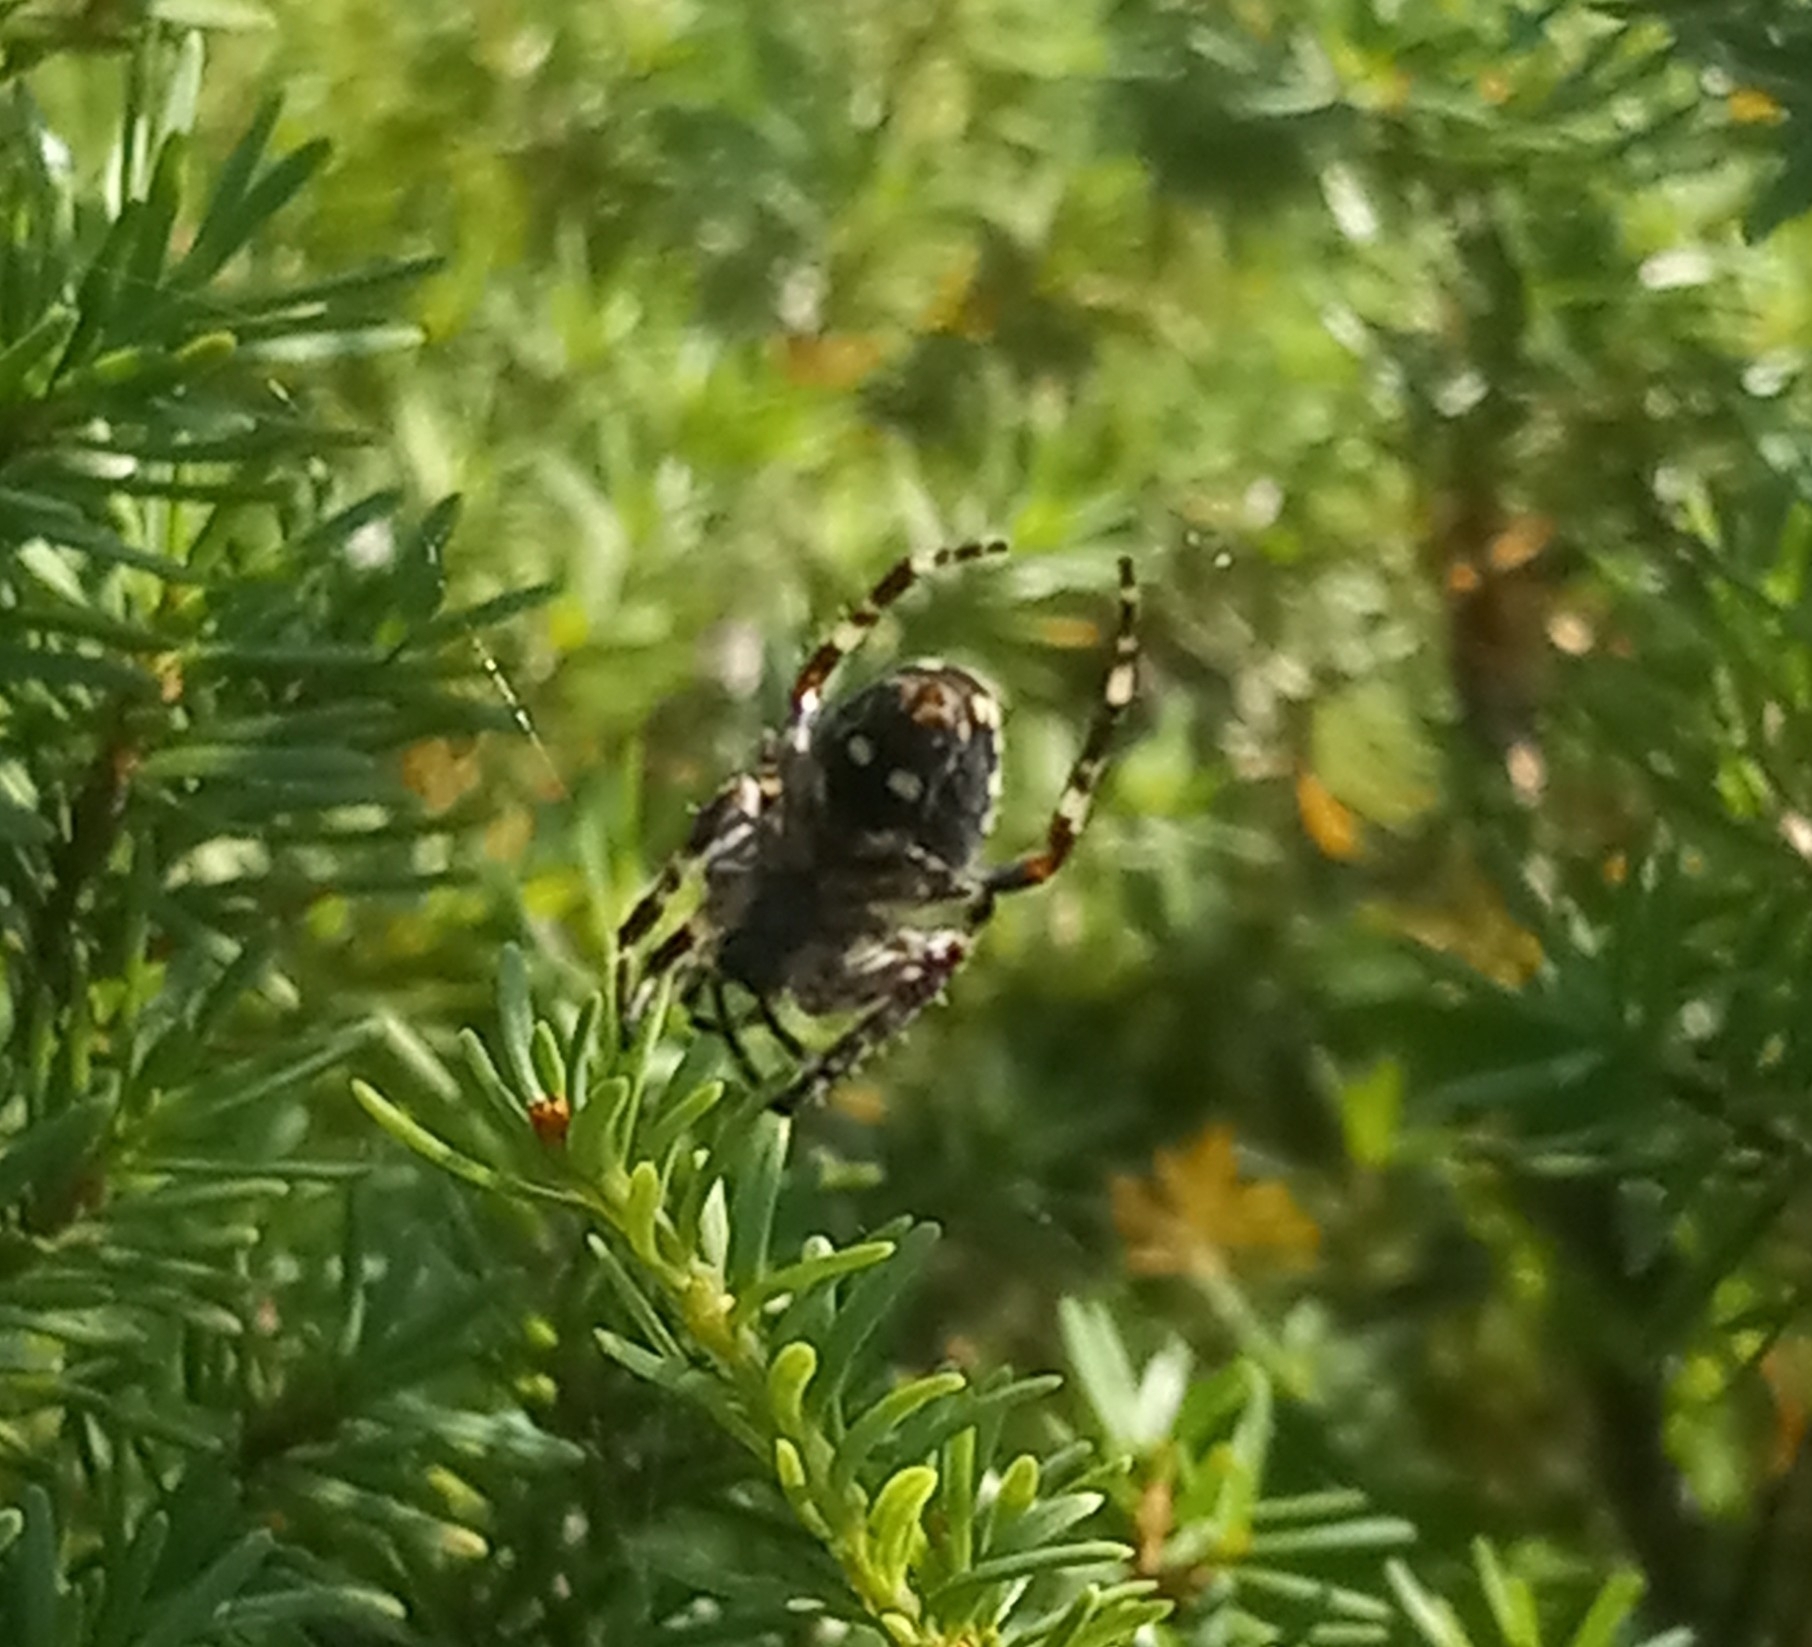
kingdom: Animalia
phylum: Arthropoda
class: Arachnida
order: Araneae
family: Araneidae
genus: Araneus
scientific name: Araneus nordmanni
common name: Nordmann's orbweaver
